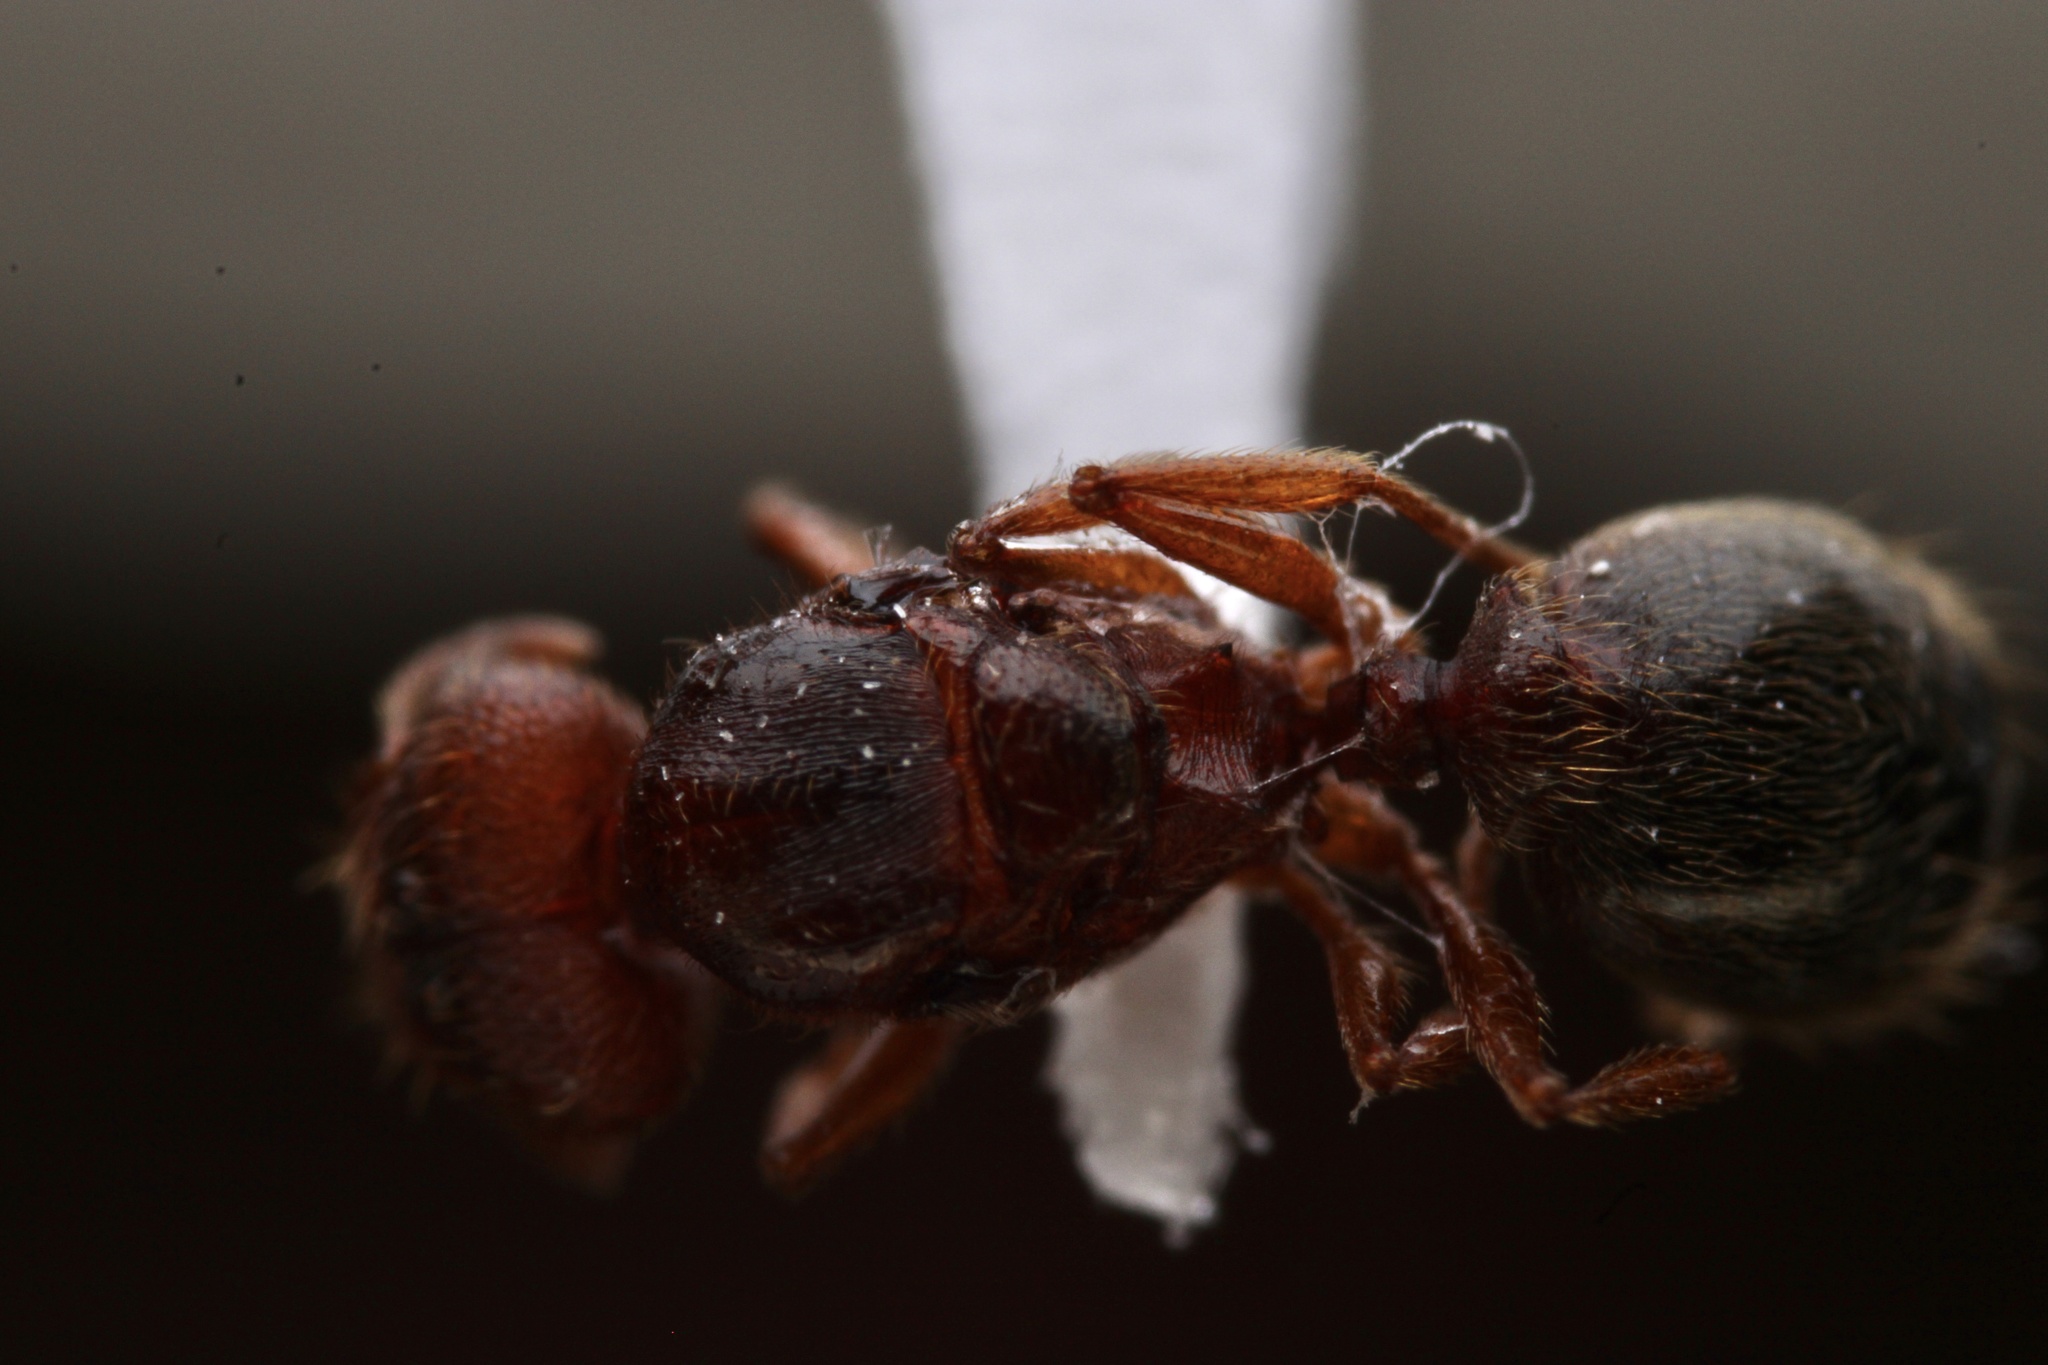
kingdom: Animalia
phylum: Arthropoda
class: Insecta
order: Hymenoptera
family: Formicidae
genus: Pheidole
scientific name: Pheidole pilifera
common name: Hairy big-headed ant
